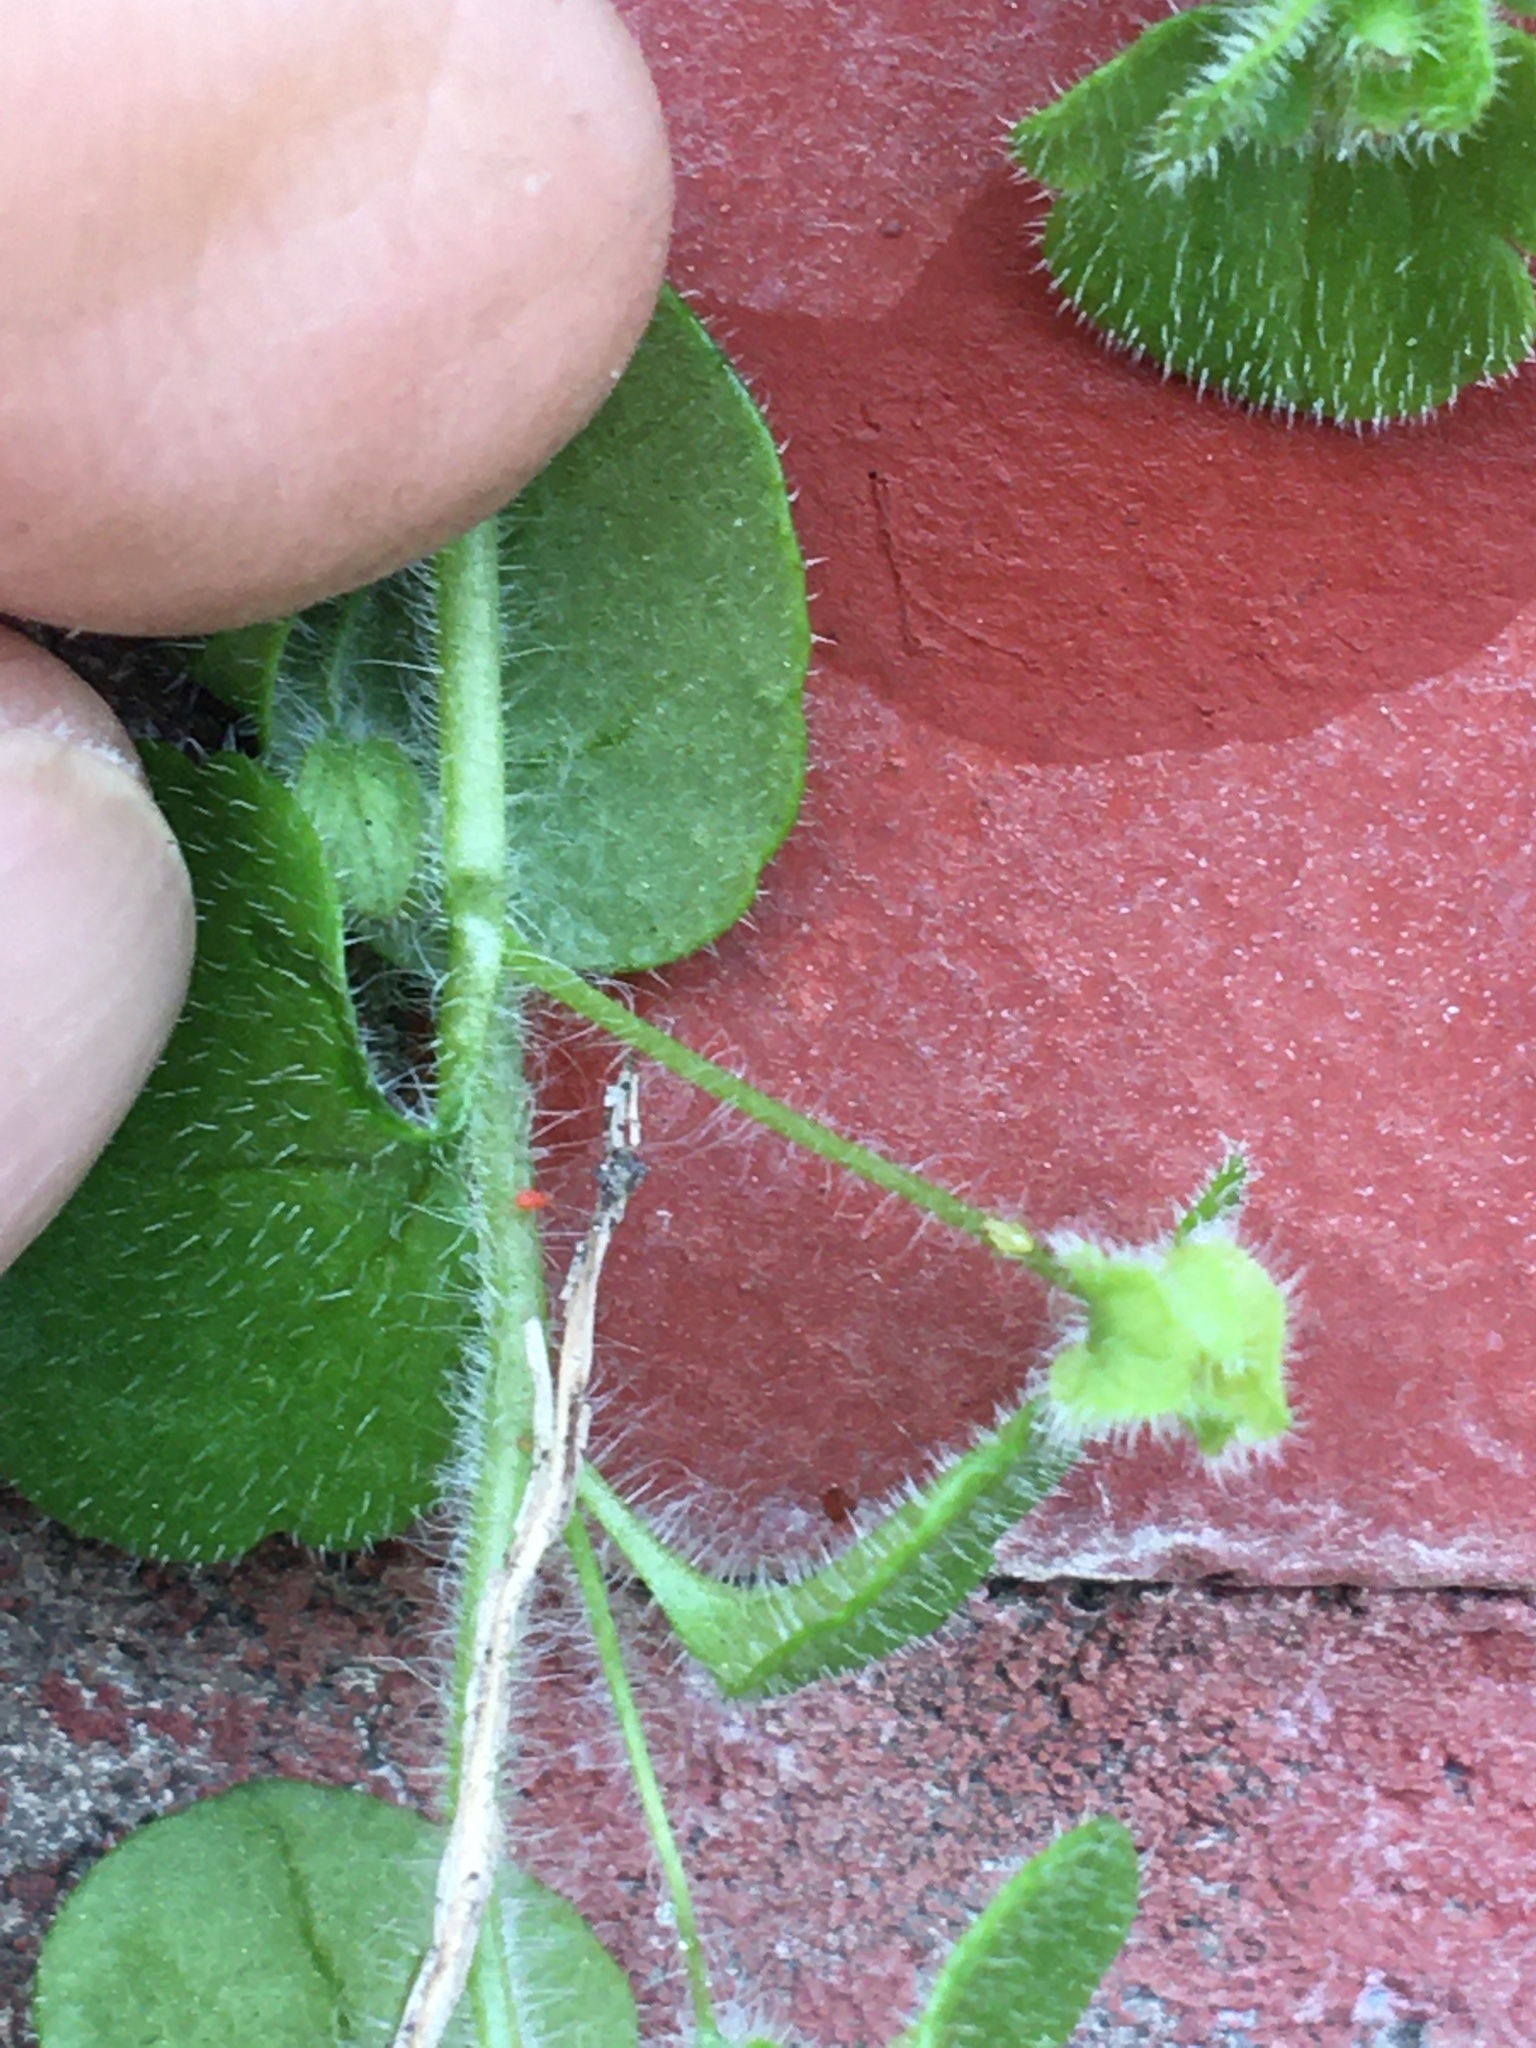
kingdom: Plantae
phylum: Tracheophyta
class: Magnoliopsida
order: Lamiales
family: Plantaginaceae
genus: Veronica
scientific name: Veronica sublobata
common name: False ivy-leaved speedwell
